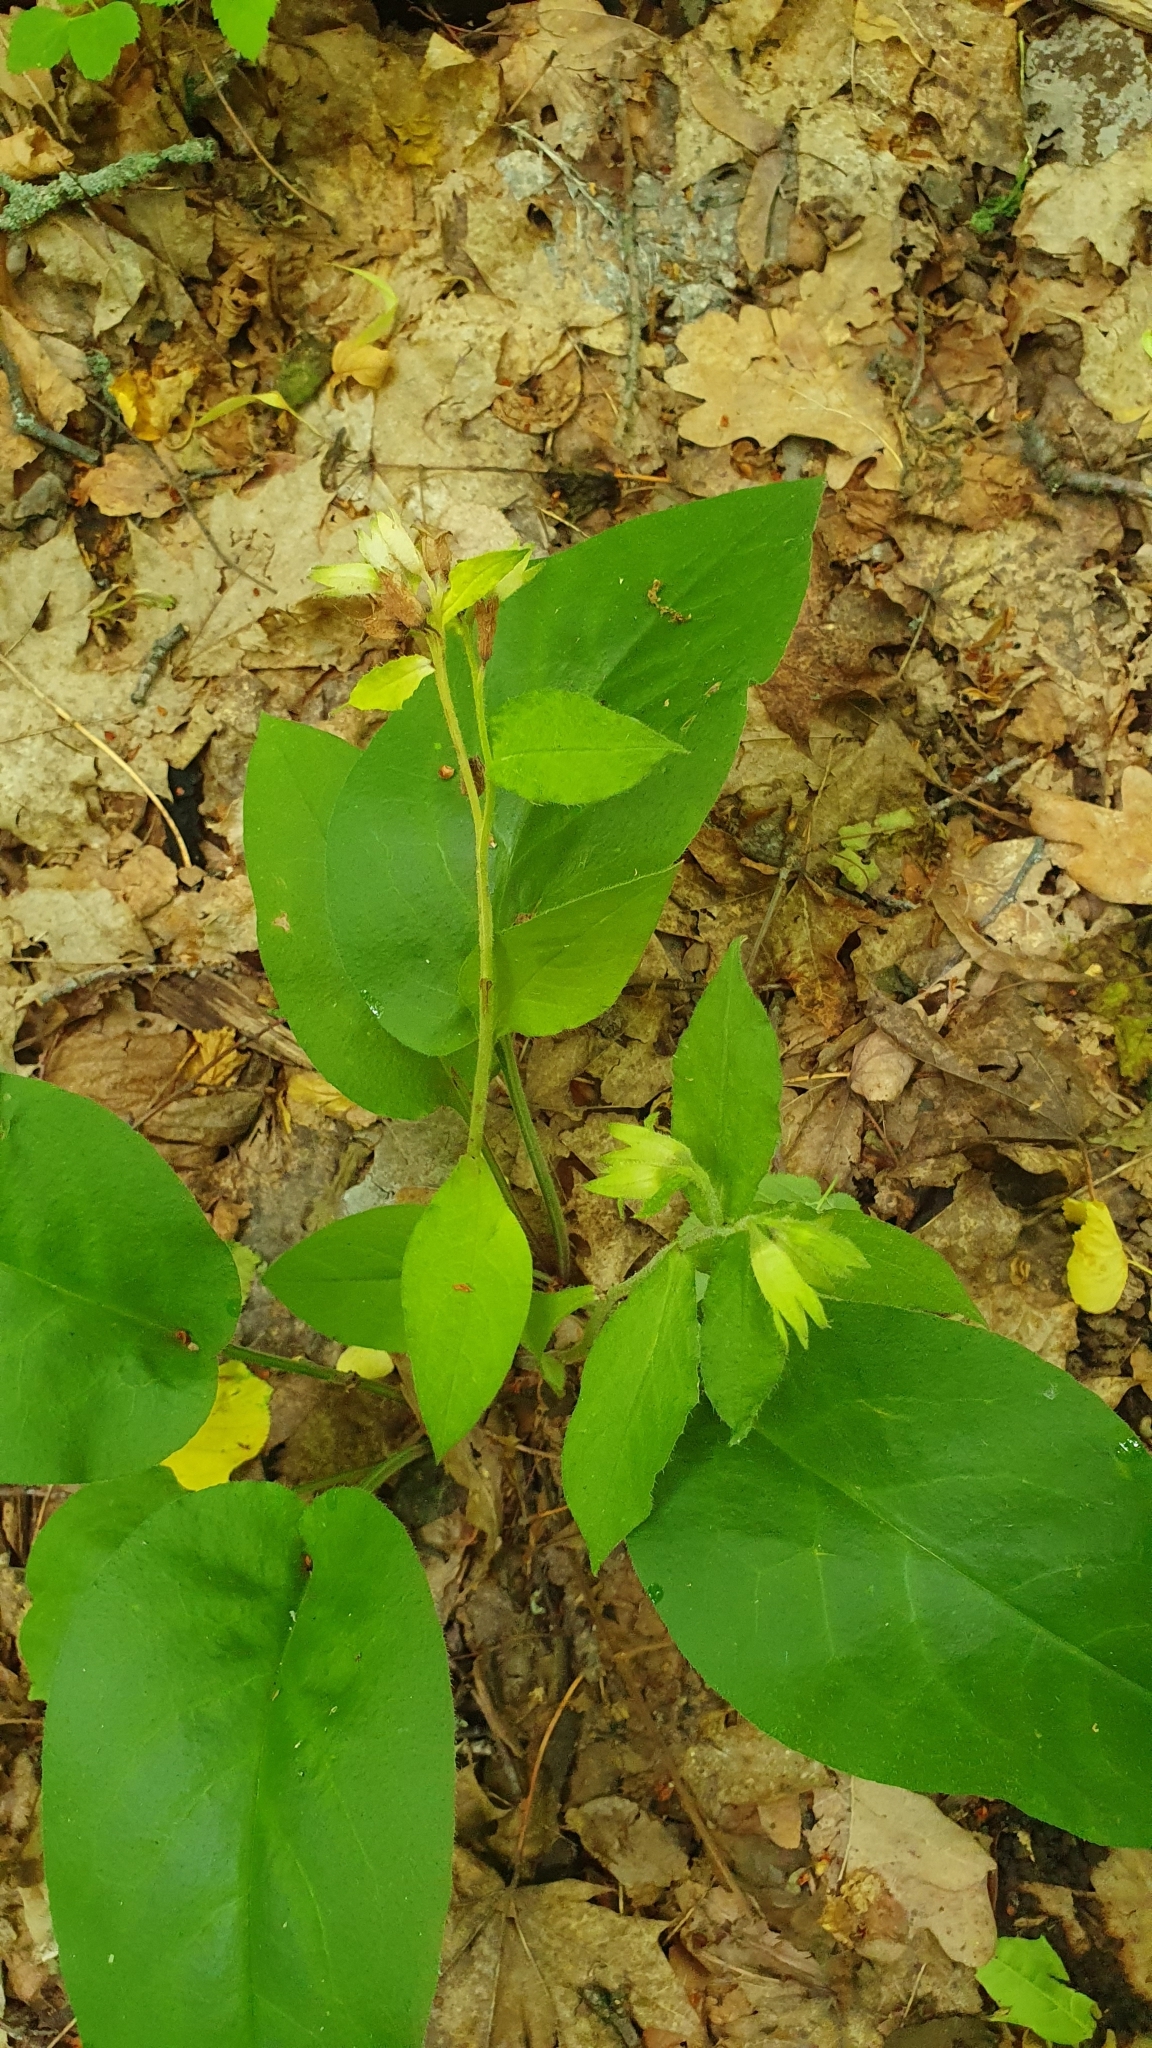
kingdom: Plantae
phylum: Tracheophyta
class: Magnoliopsida
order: Boraginales
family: Boraginaceae
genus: Pulmonaria
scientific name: Pulmonaria obscura
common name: Suffolk lungwort
